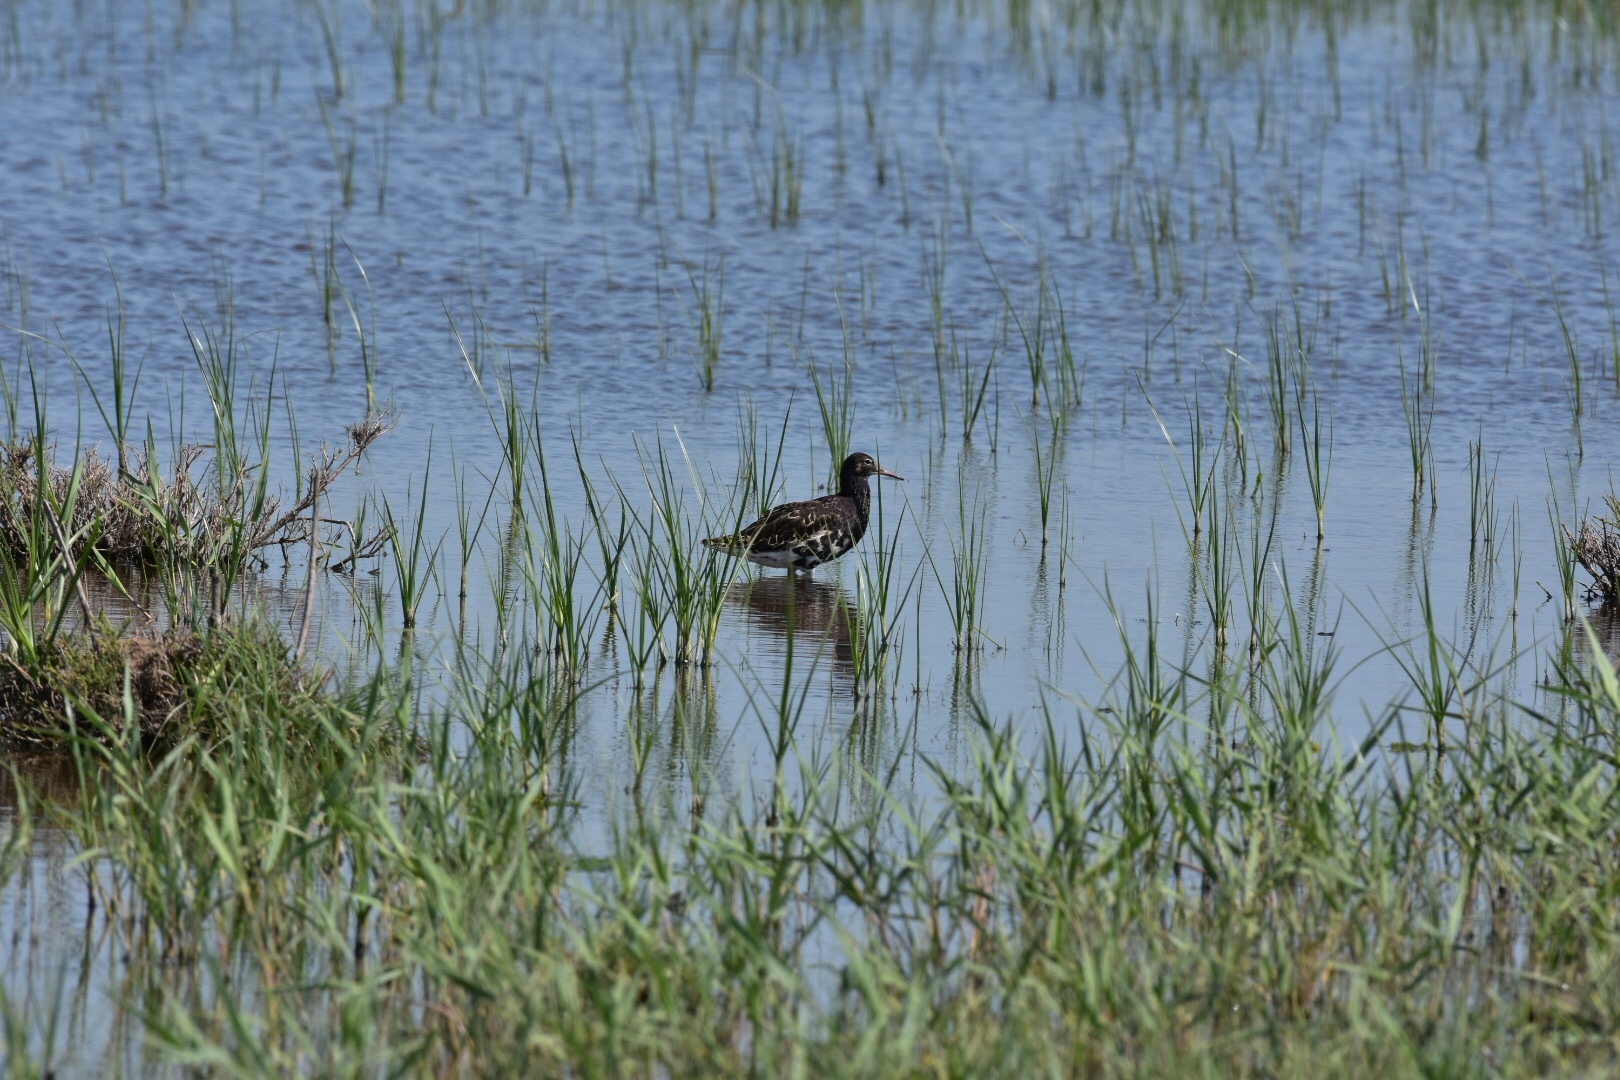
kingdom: Animalia
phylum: Chordata
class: Aves
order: Charadriiformes
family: Scolopacidae
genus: Calidris
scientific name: Calidris pugnax
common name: Ruff
